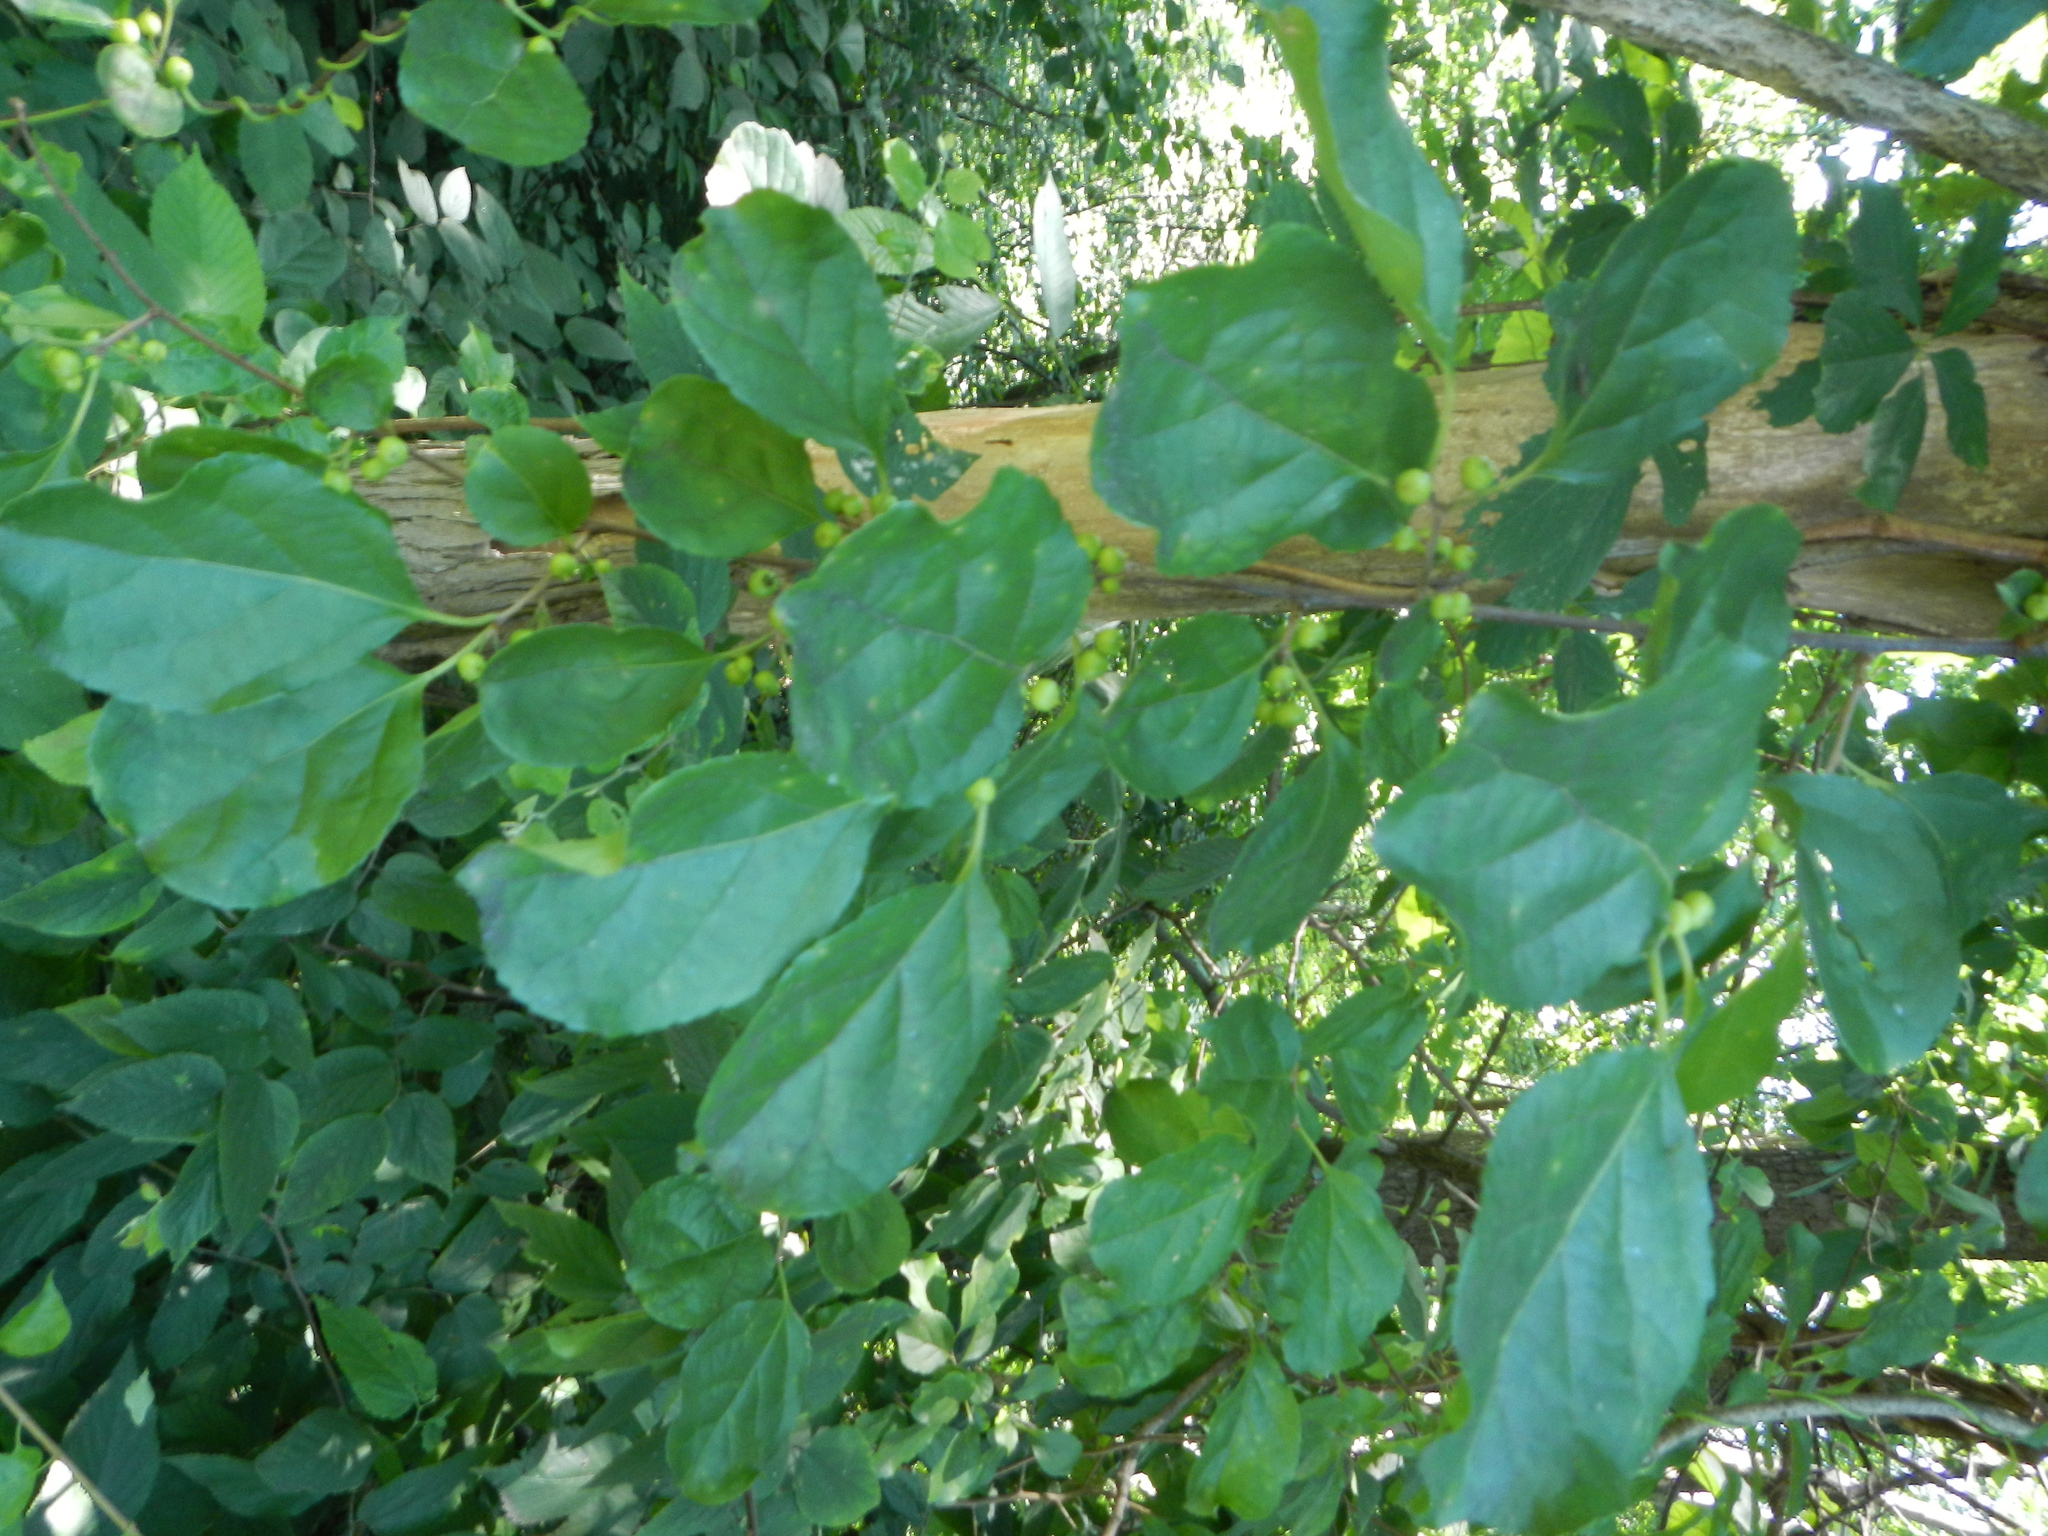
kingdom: Plantae
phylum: Tracheophyta
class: Magnoliopsida
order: Celastrales
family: Celastraceae
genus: Celastrus
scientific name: Celastrus orbiculatus
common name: Oriental bittersweet
